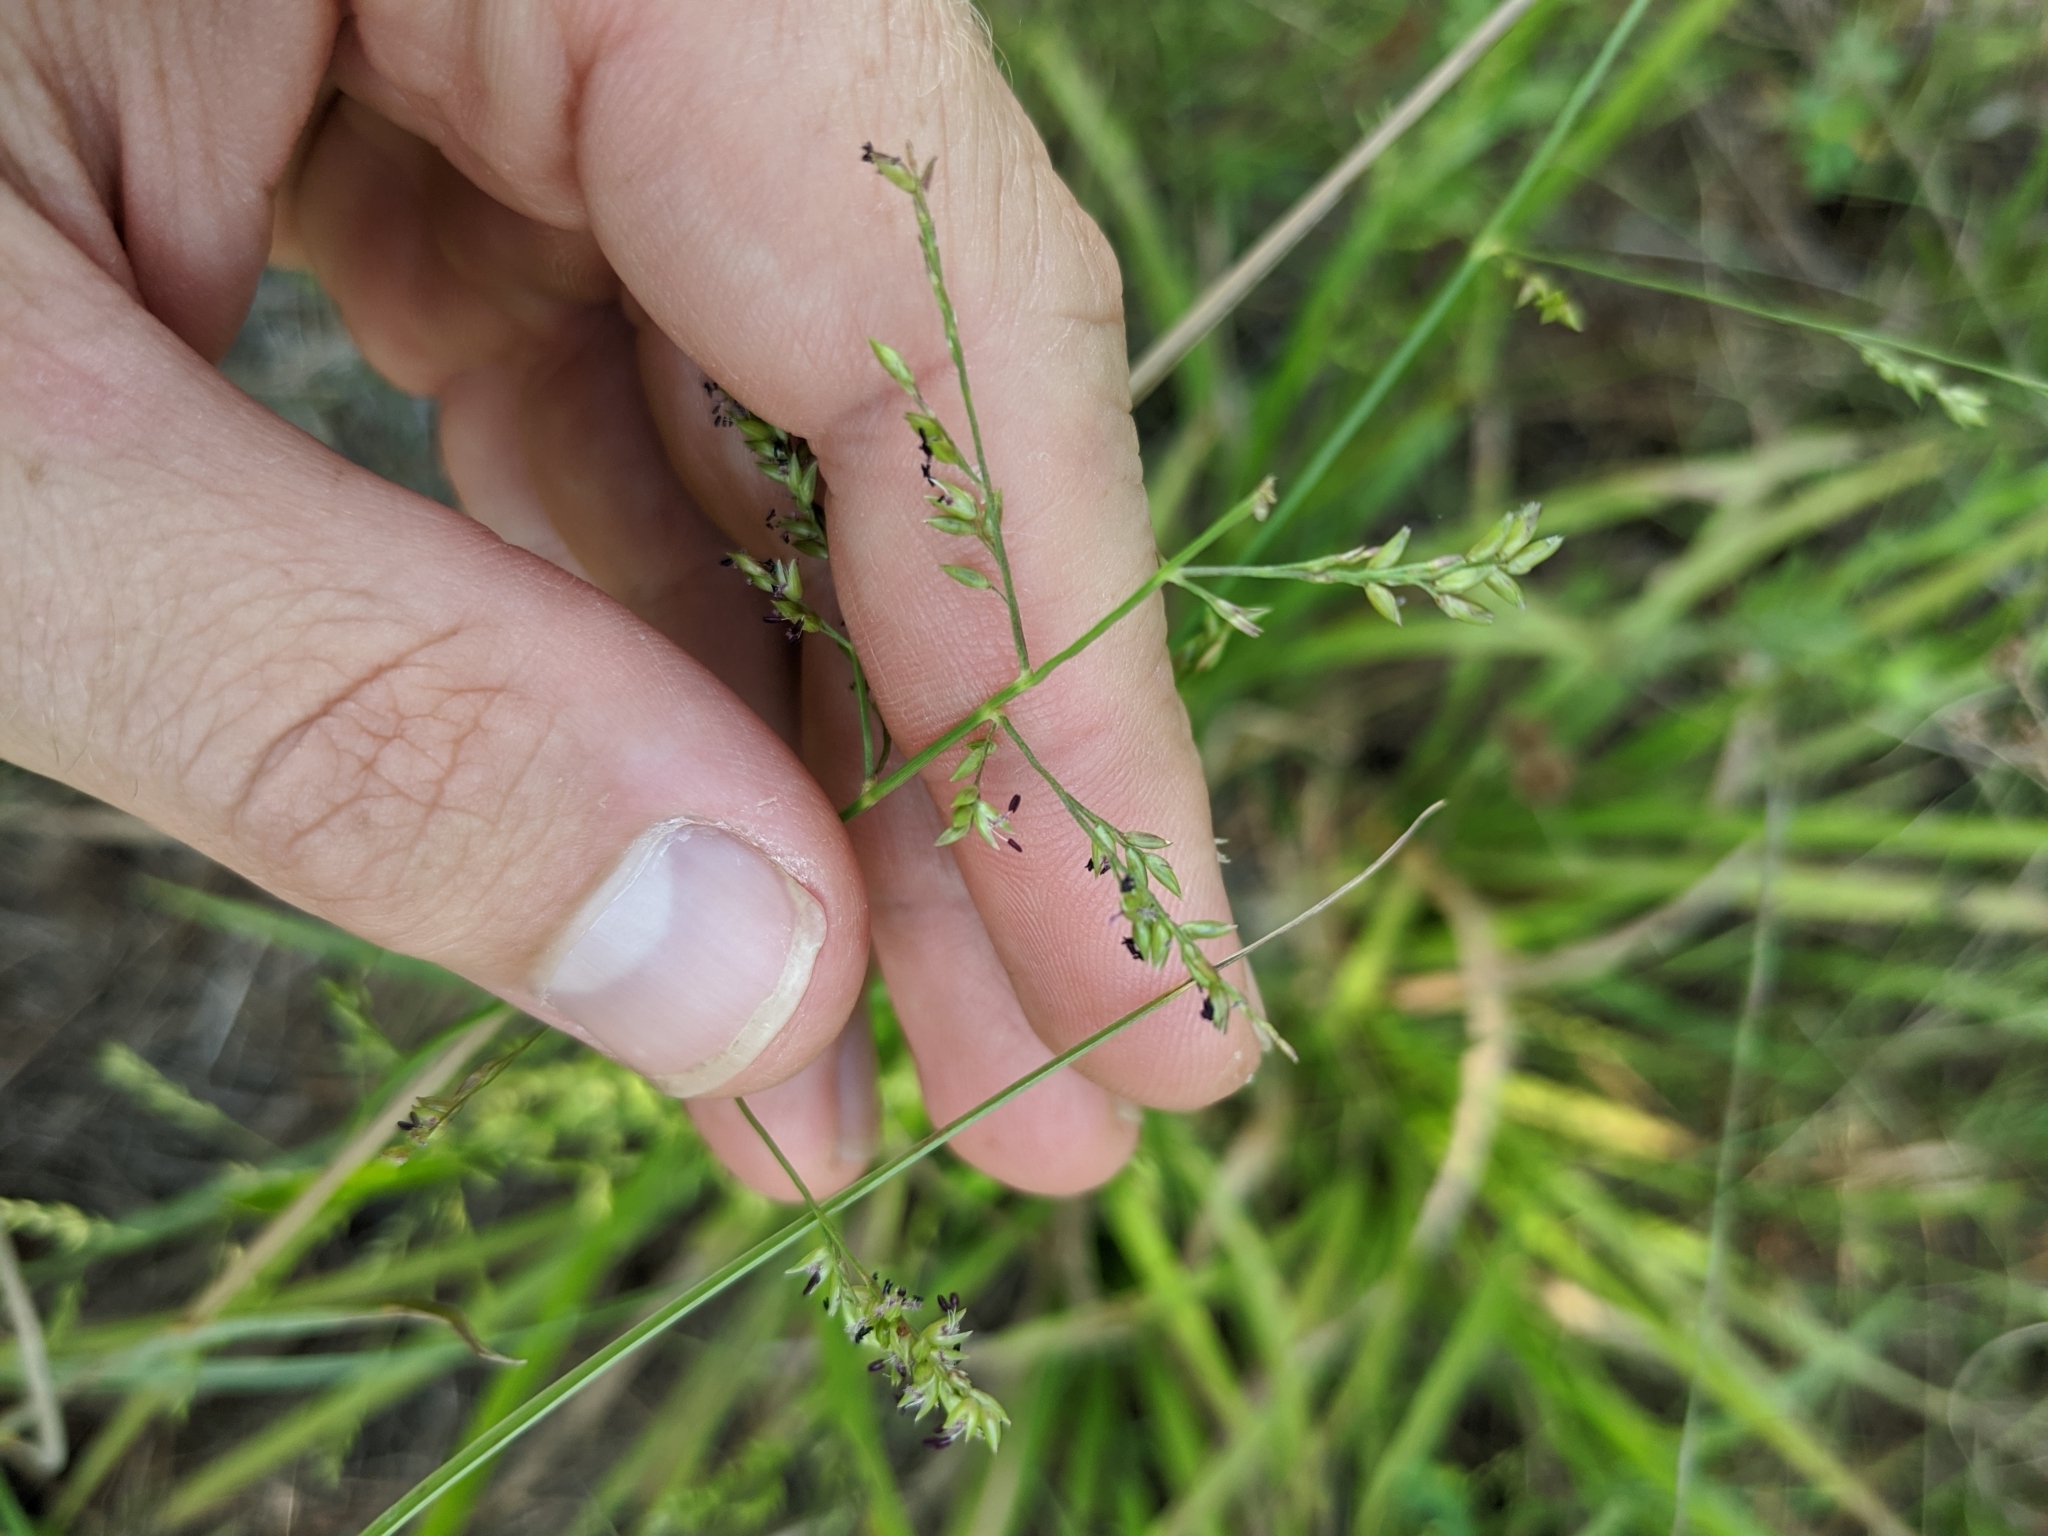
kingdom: Plantae
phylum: Tracheophyta
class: Liliopsida
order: Poales
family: Poaceae
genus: Coleataenia
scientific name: Coleataenia anceps
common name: Beaked panic grass
